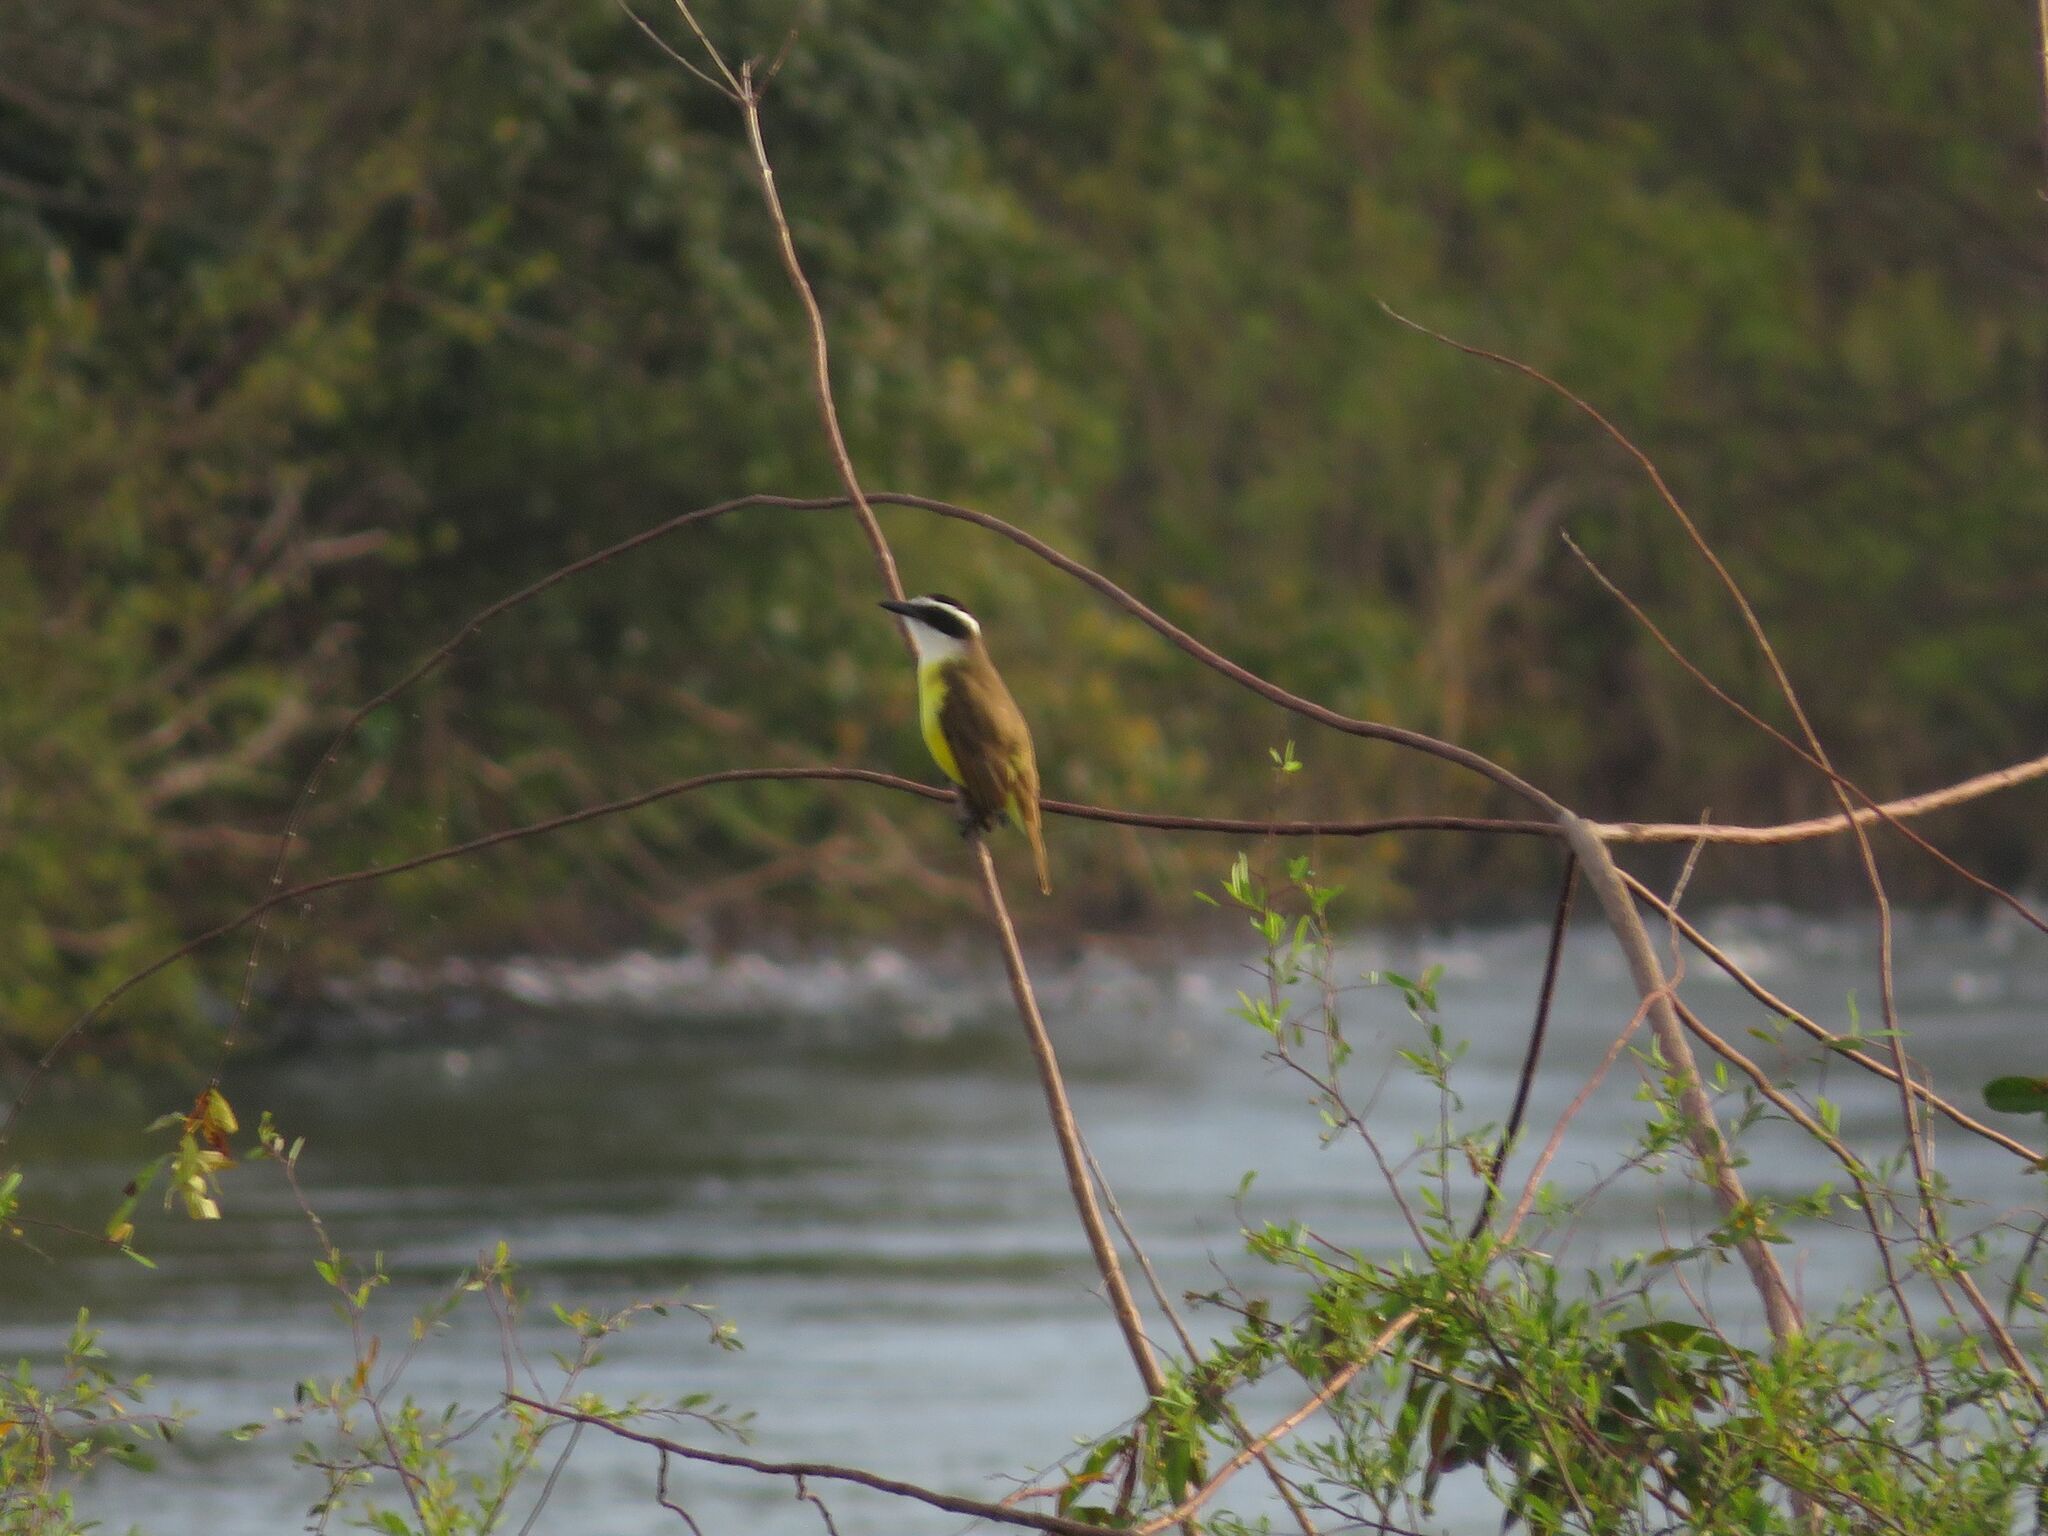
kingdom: Animalia
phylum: Chordata
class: Aves
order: Passeriformes
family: Tyrannidae
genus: Pitangus
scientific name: Pitangus sulphuratus
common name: Great kiskadee
